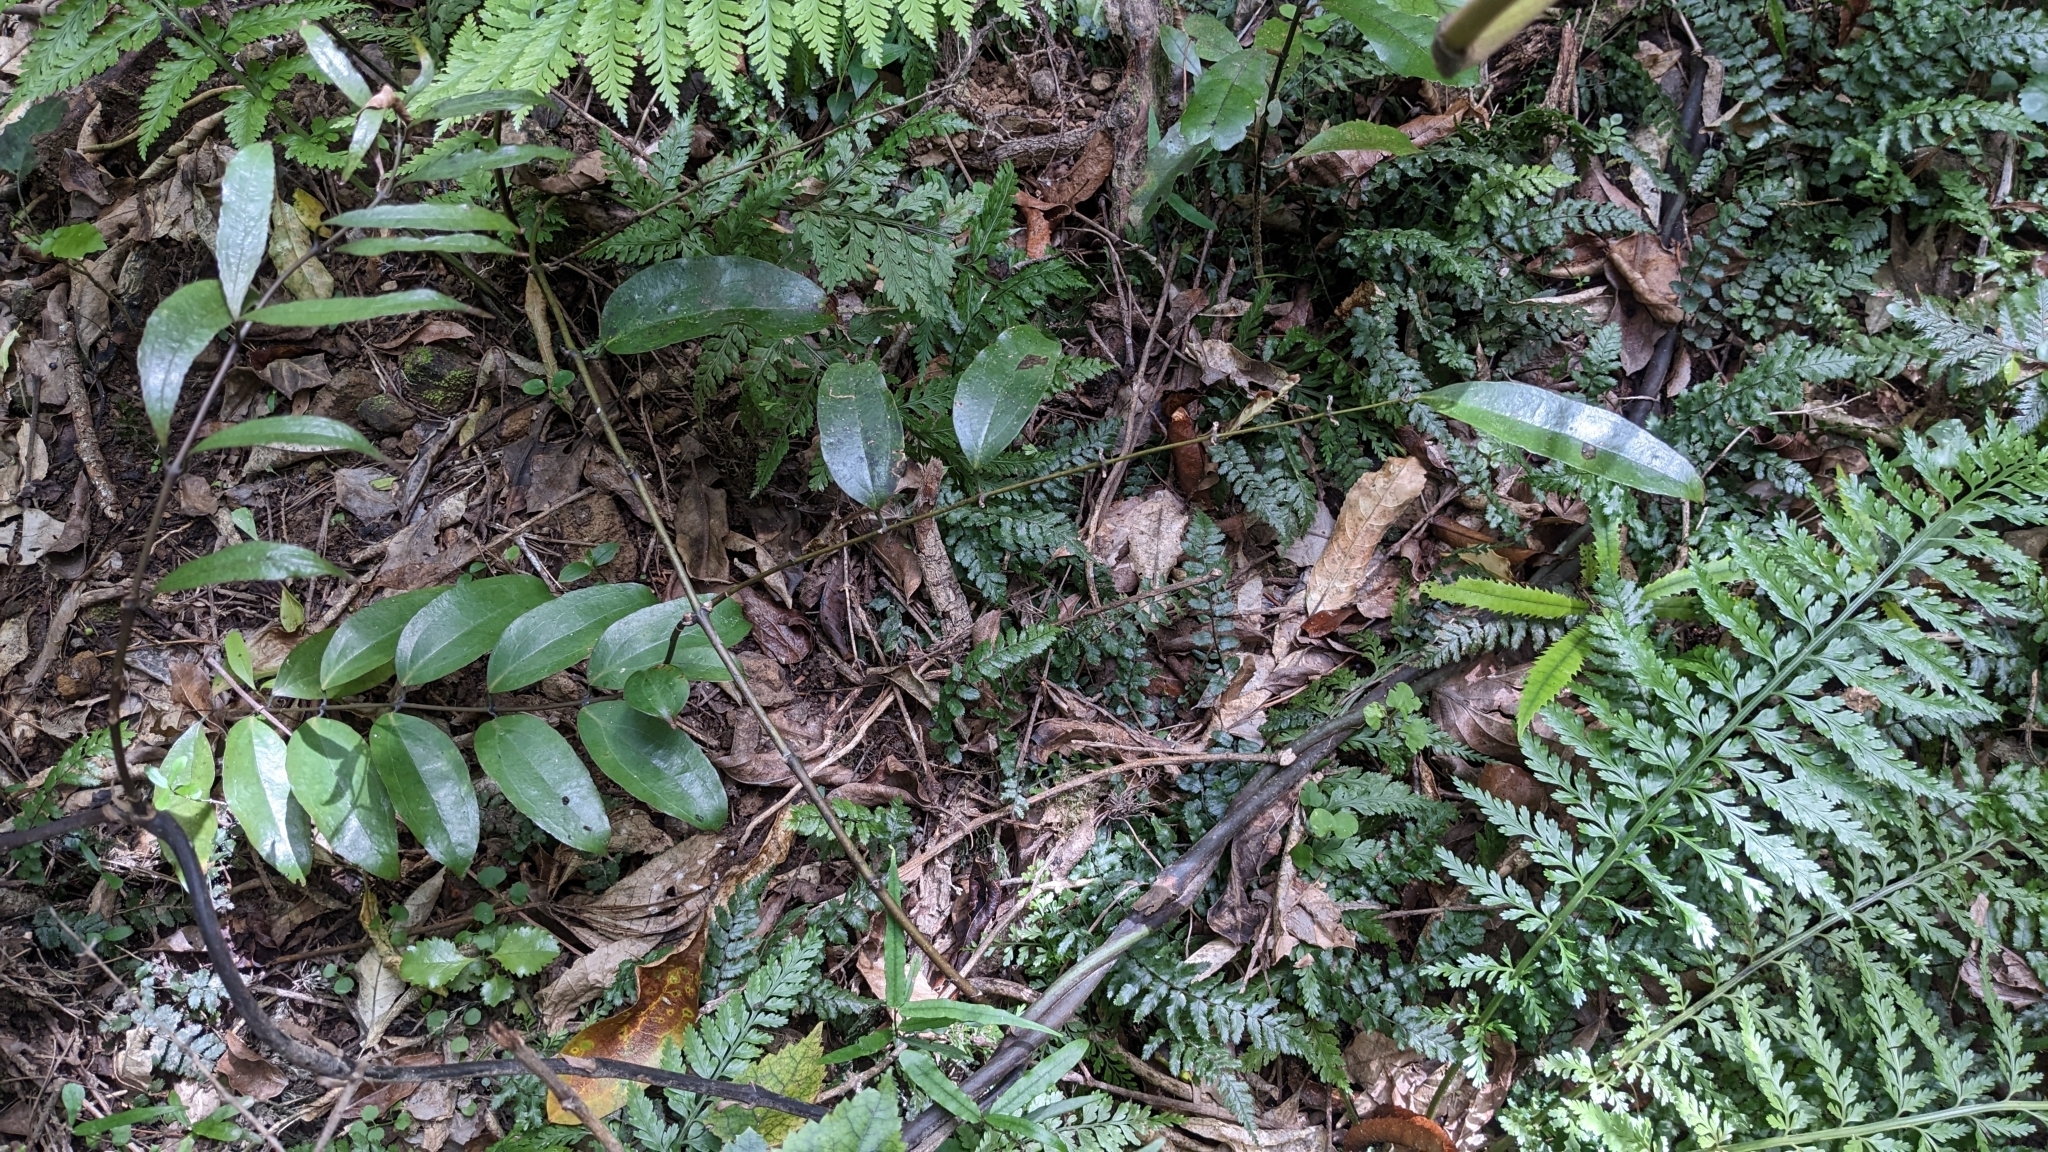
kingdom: Plantae
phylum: Tracheophyta
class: Liliopsida
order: Liliales
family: Ripogonaceae
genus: Ripogonum
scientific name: Ripogonum scandens
